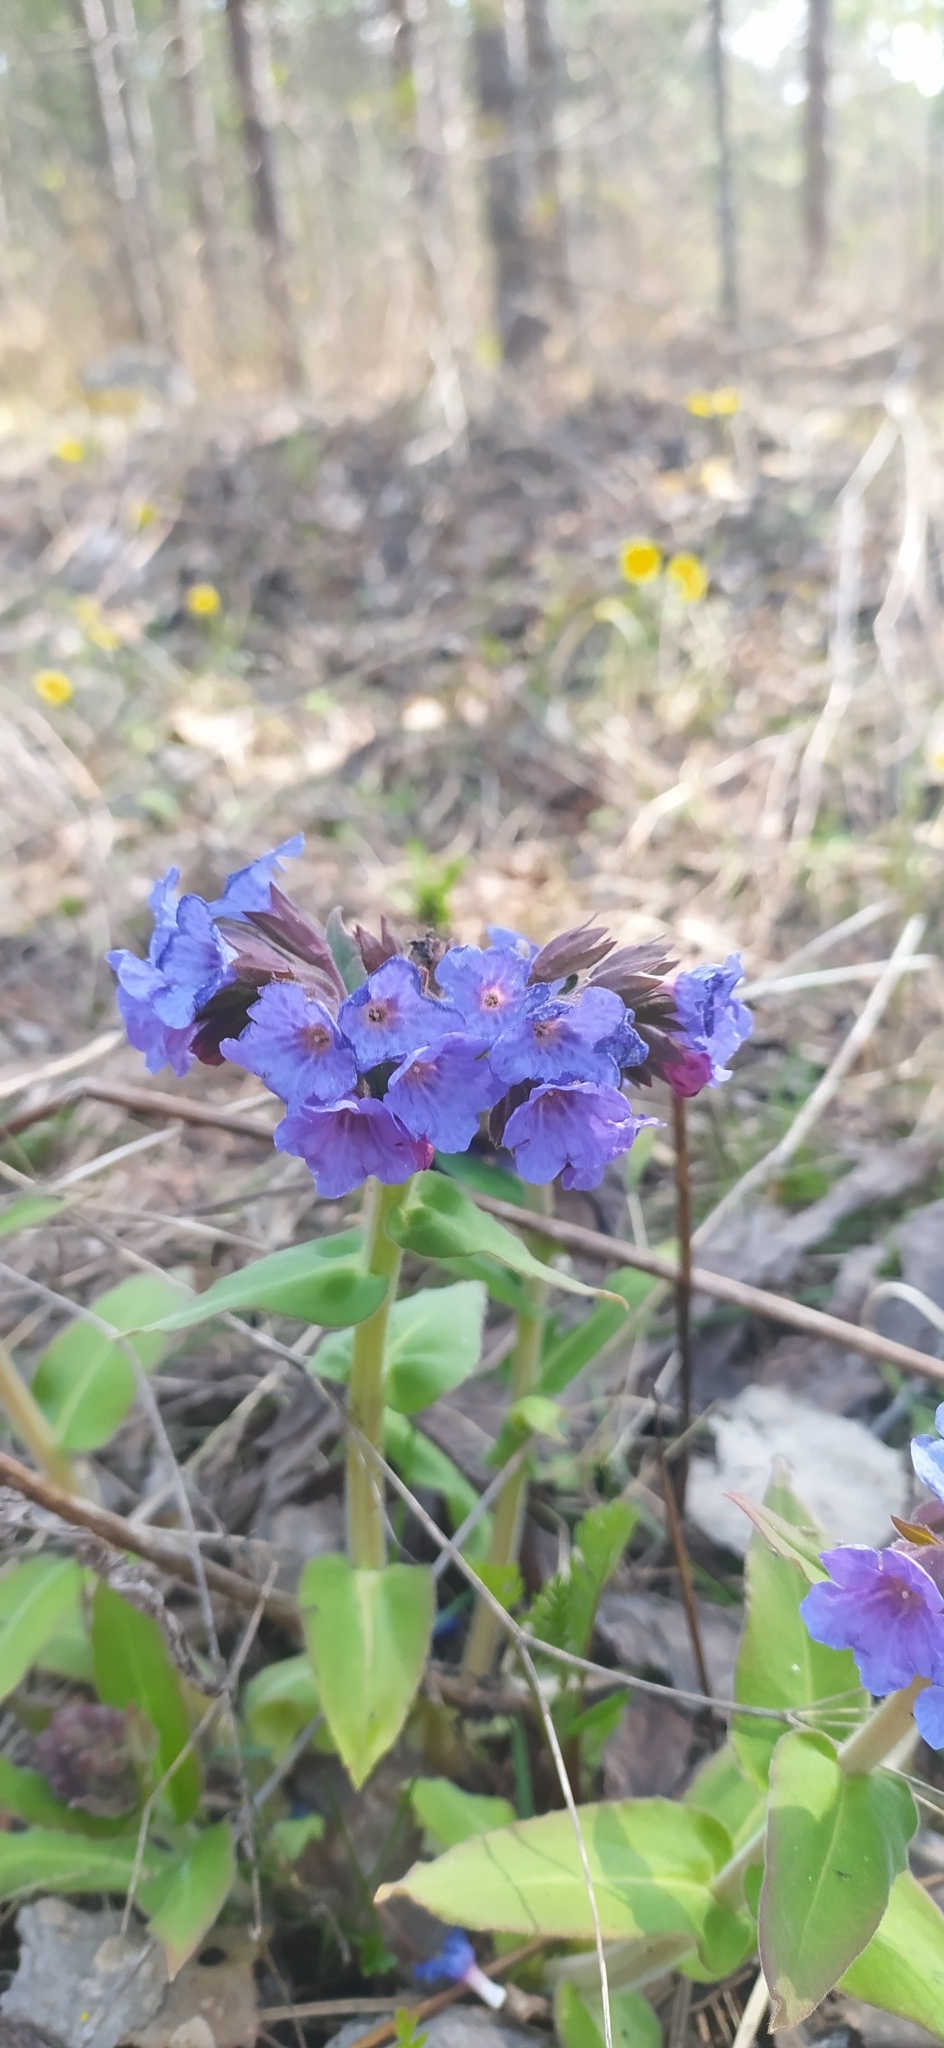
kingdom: Plantae
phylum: Tracheophyta
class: Magnoliopsida
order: Boraginales
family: Boraginaceae
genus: Pulmonaria
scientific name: Pulmonaria mollis
